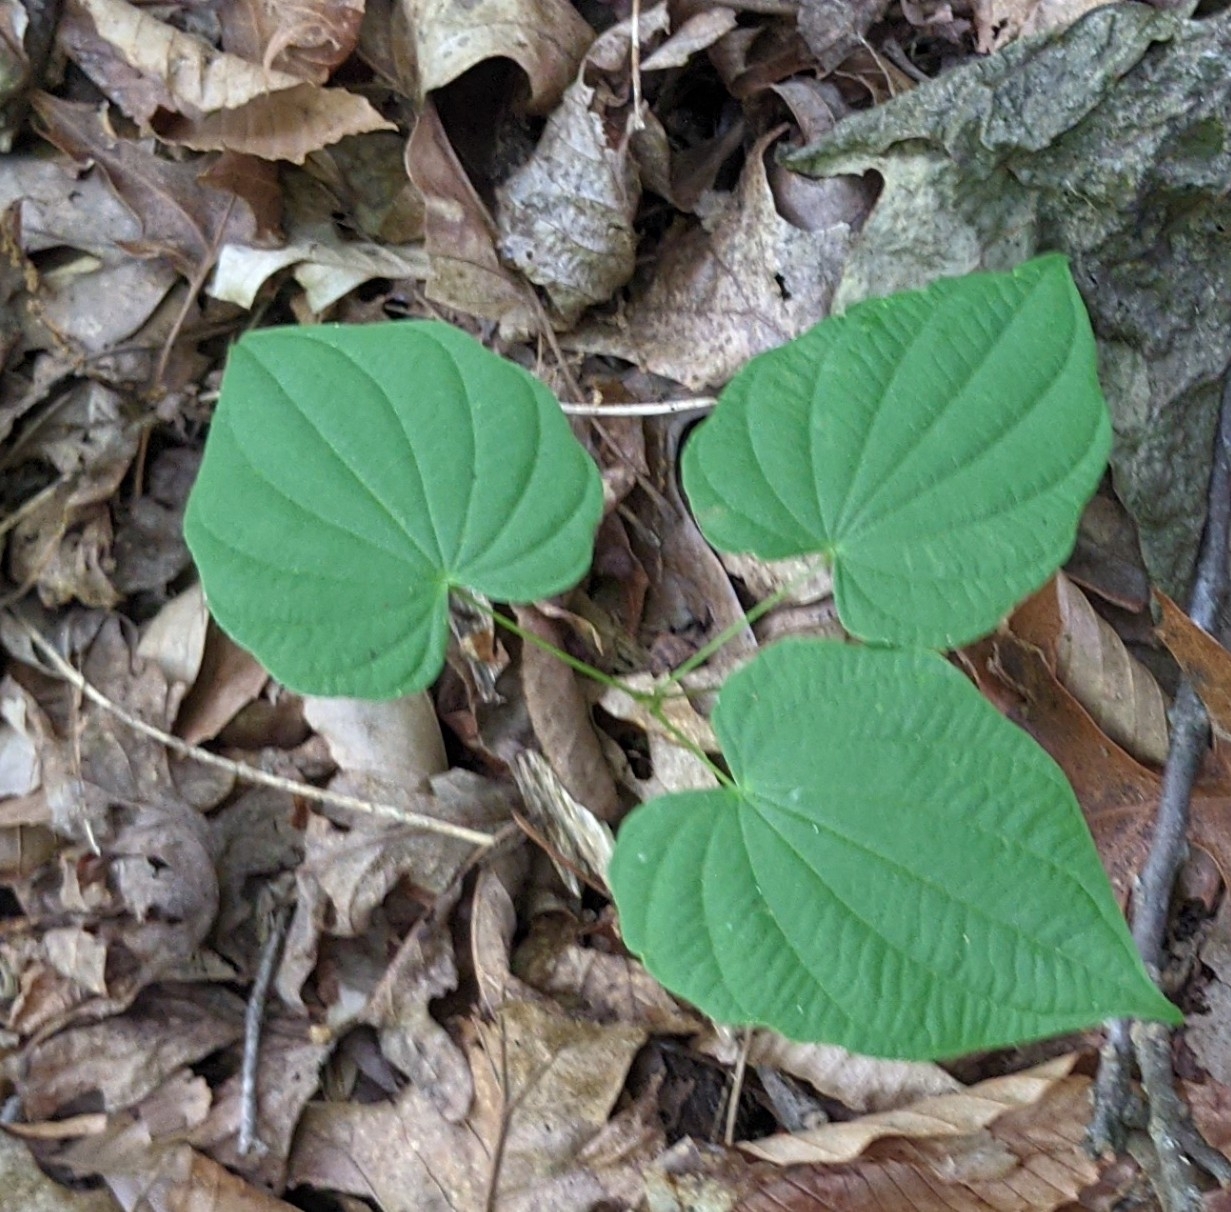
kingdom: Plantae
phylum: Tracheophyta
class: Liliopsida
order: Dioscoreales
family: Dioscoreaceae
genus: Dioscorea
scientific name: Dioscorea villosa
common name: Wild yam
